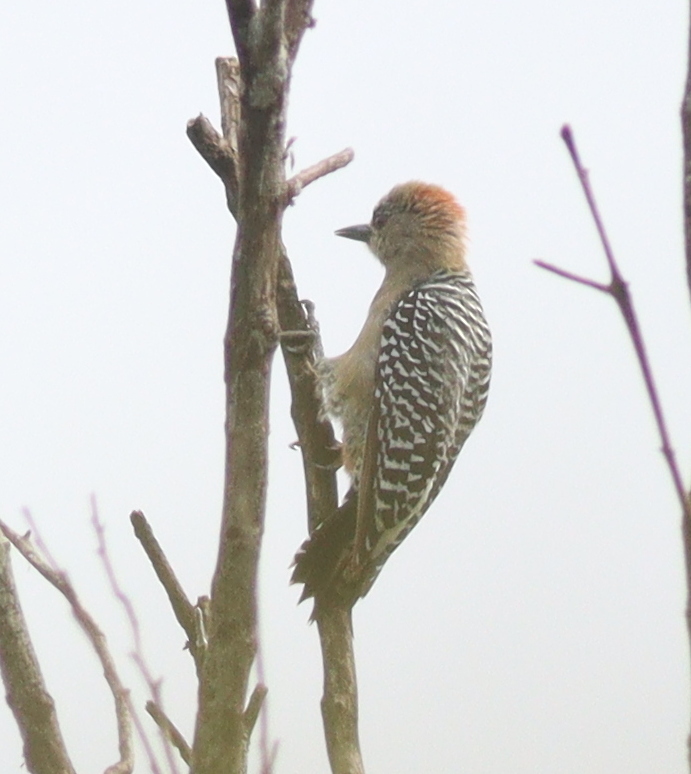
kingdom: Animalia
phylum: Chordata
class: Aves
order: Piciformes
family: Picidae
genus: Melanerpes
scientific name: Melanerpes rubricapillus
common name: Red-crowned woodpecker
